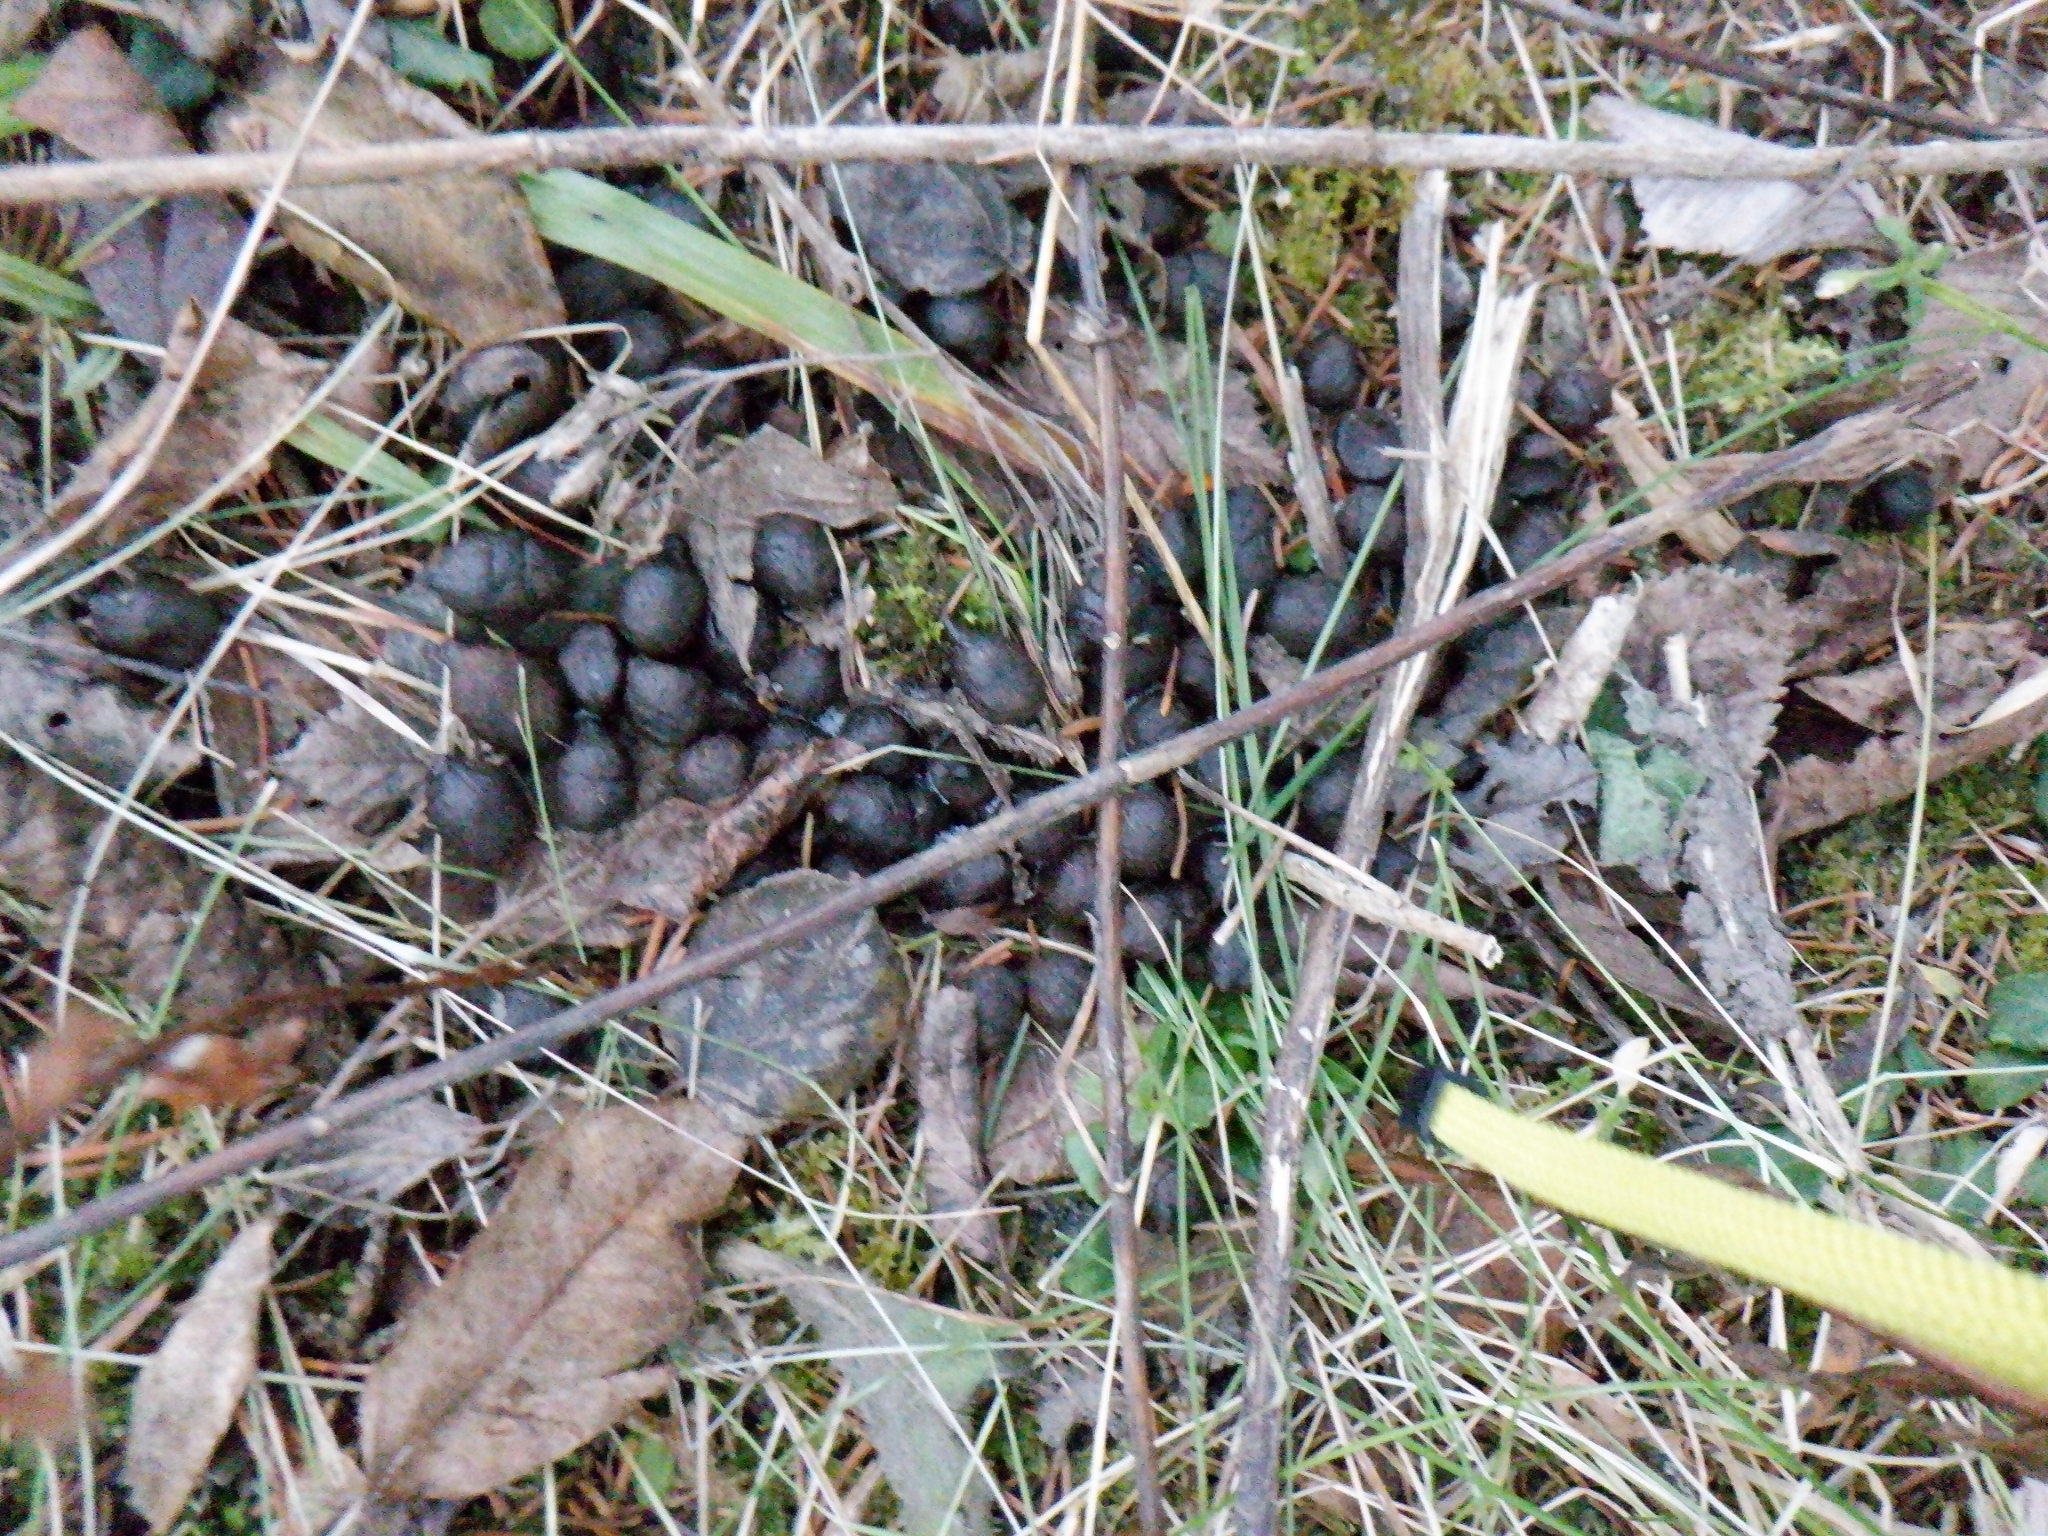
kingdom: Animalia
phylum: Chordata
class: Mammalia
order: Artiodactyla
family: Cervidae
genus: Odocoileus
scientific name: Odocoileus virginianus
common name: White-tailed deer
